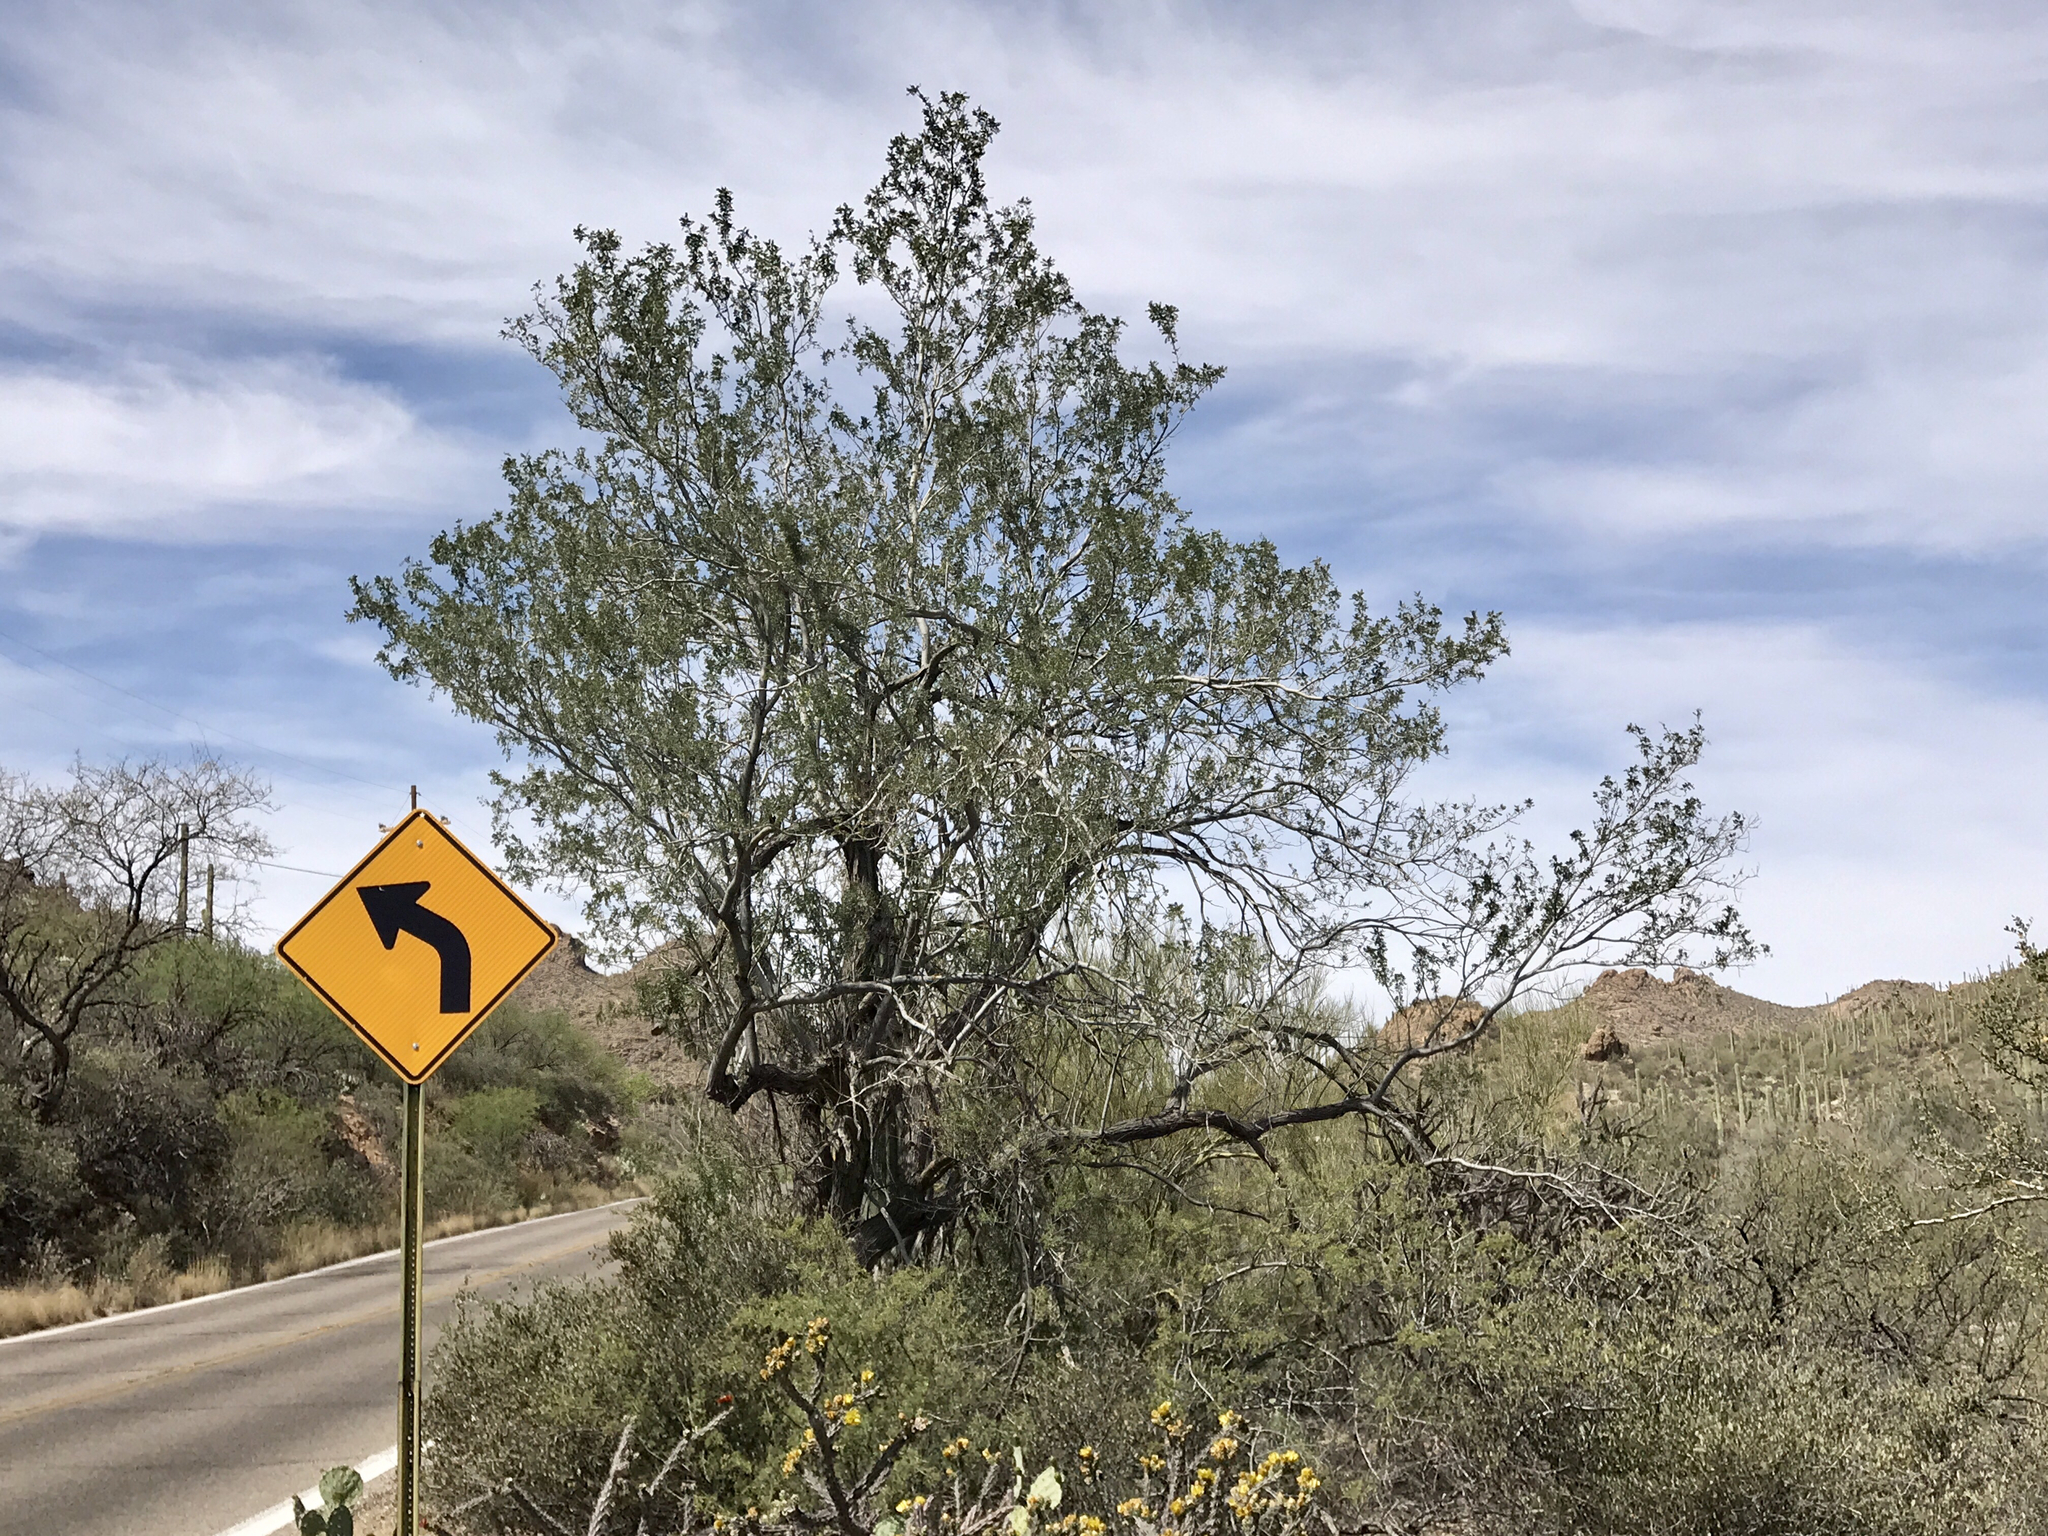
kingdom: Plantae
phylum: Tracheophyta
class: Magnoliopsida
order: Fabales
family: Fabaceae
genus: Olneya
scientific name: Olneya tesota
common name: Desert ironwood
